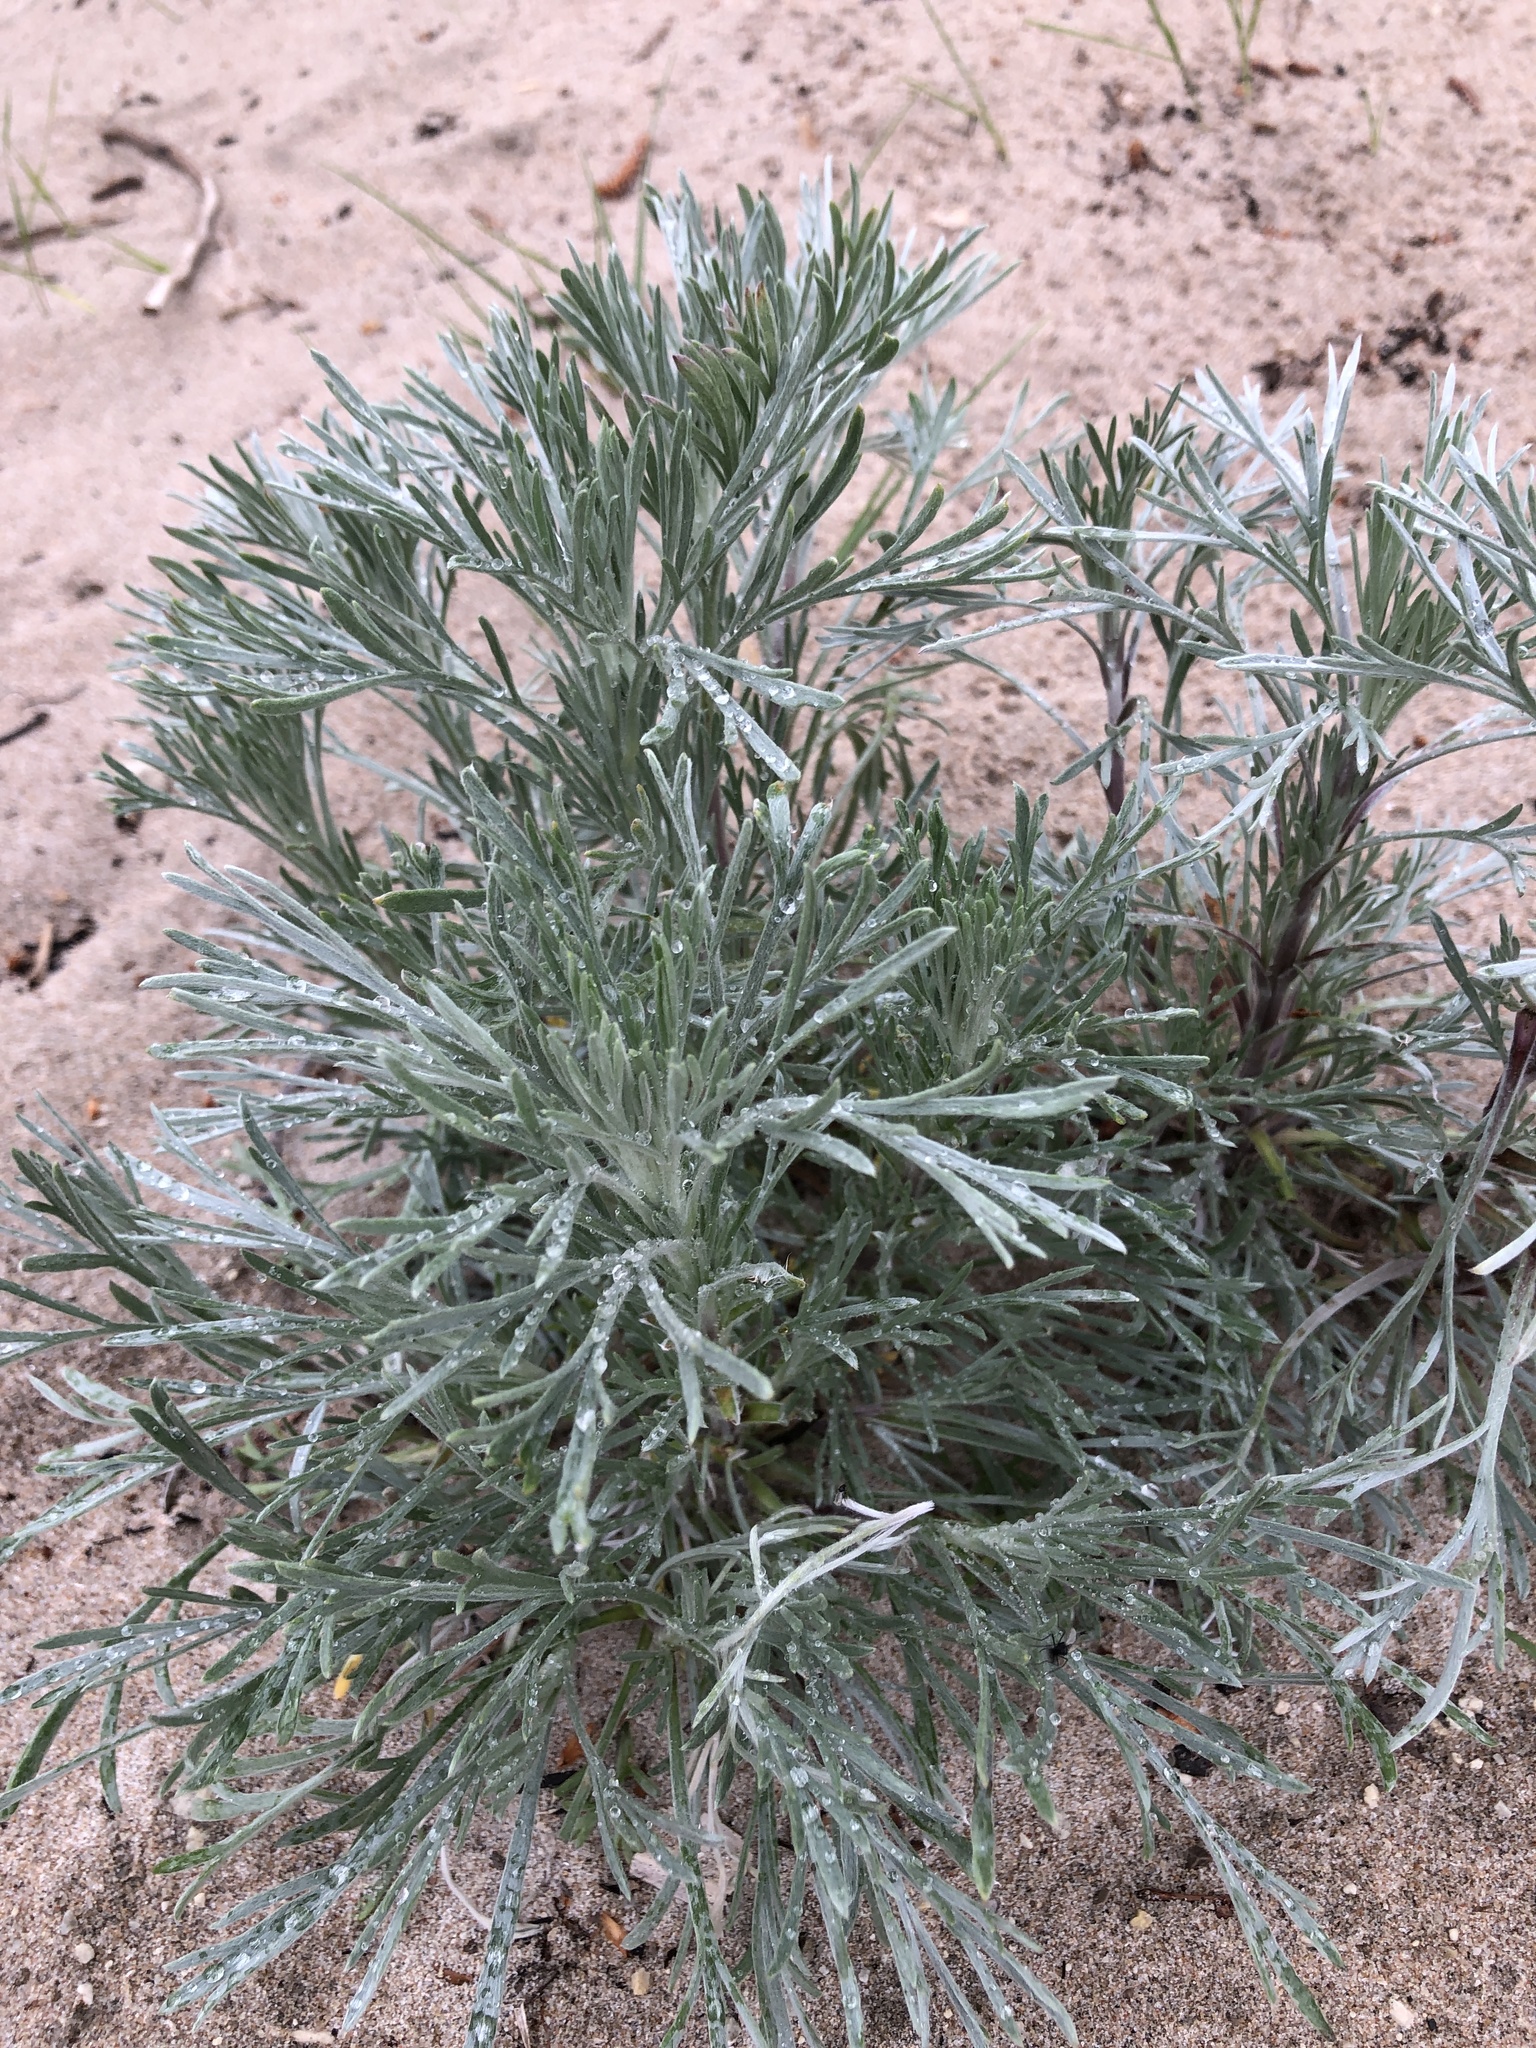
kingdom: Plantae
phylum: Tracheophyta
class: Magnoliopsida
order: Asterales
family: Asteraceae
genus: Artemisia
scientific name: Artemisia campestris
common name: Field wormwood
